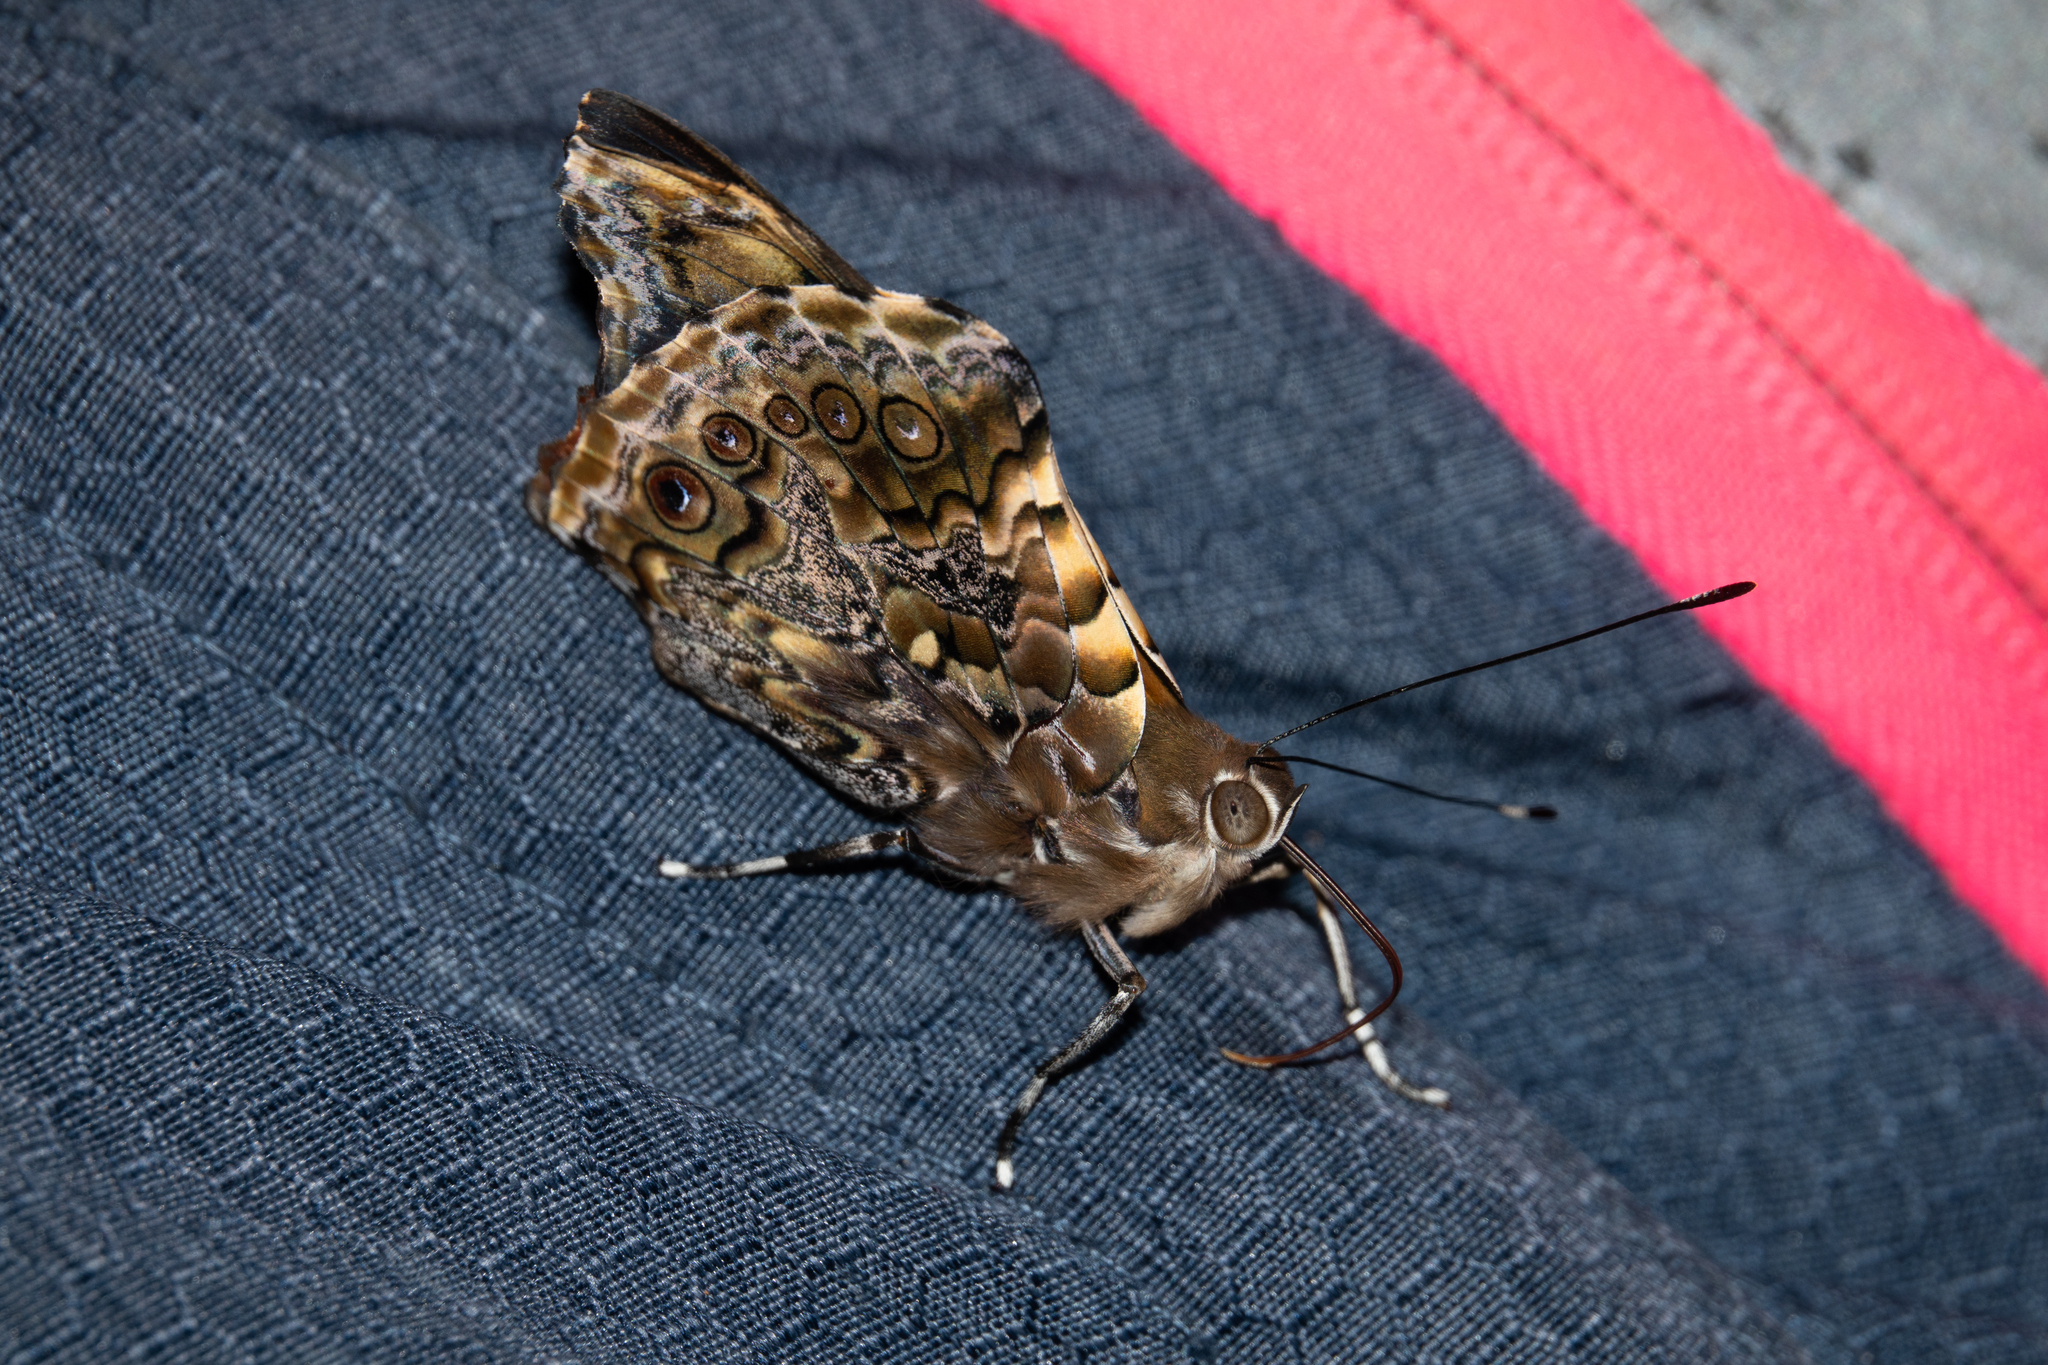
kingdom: Animalia
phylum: Arthropoda
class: Insecta
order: Lepidoptera
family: Nymphalidae
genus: Pycina
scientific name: Pycina zamba
